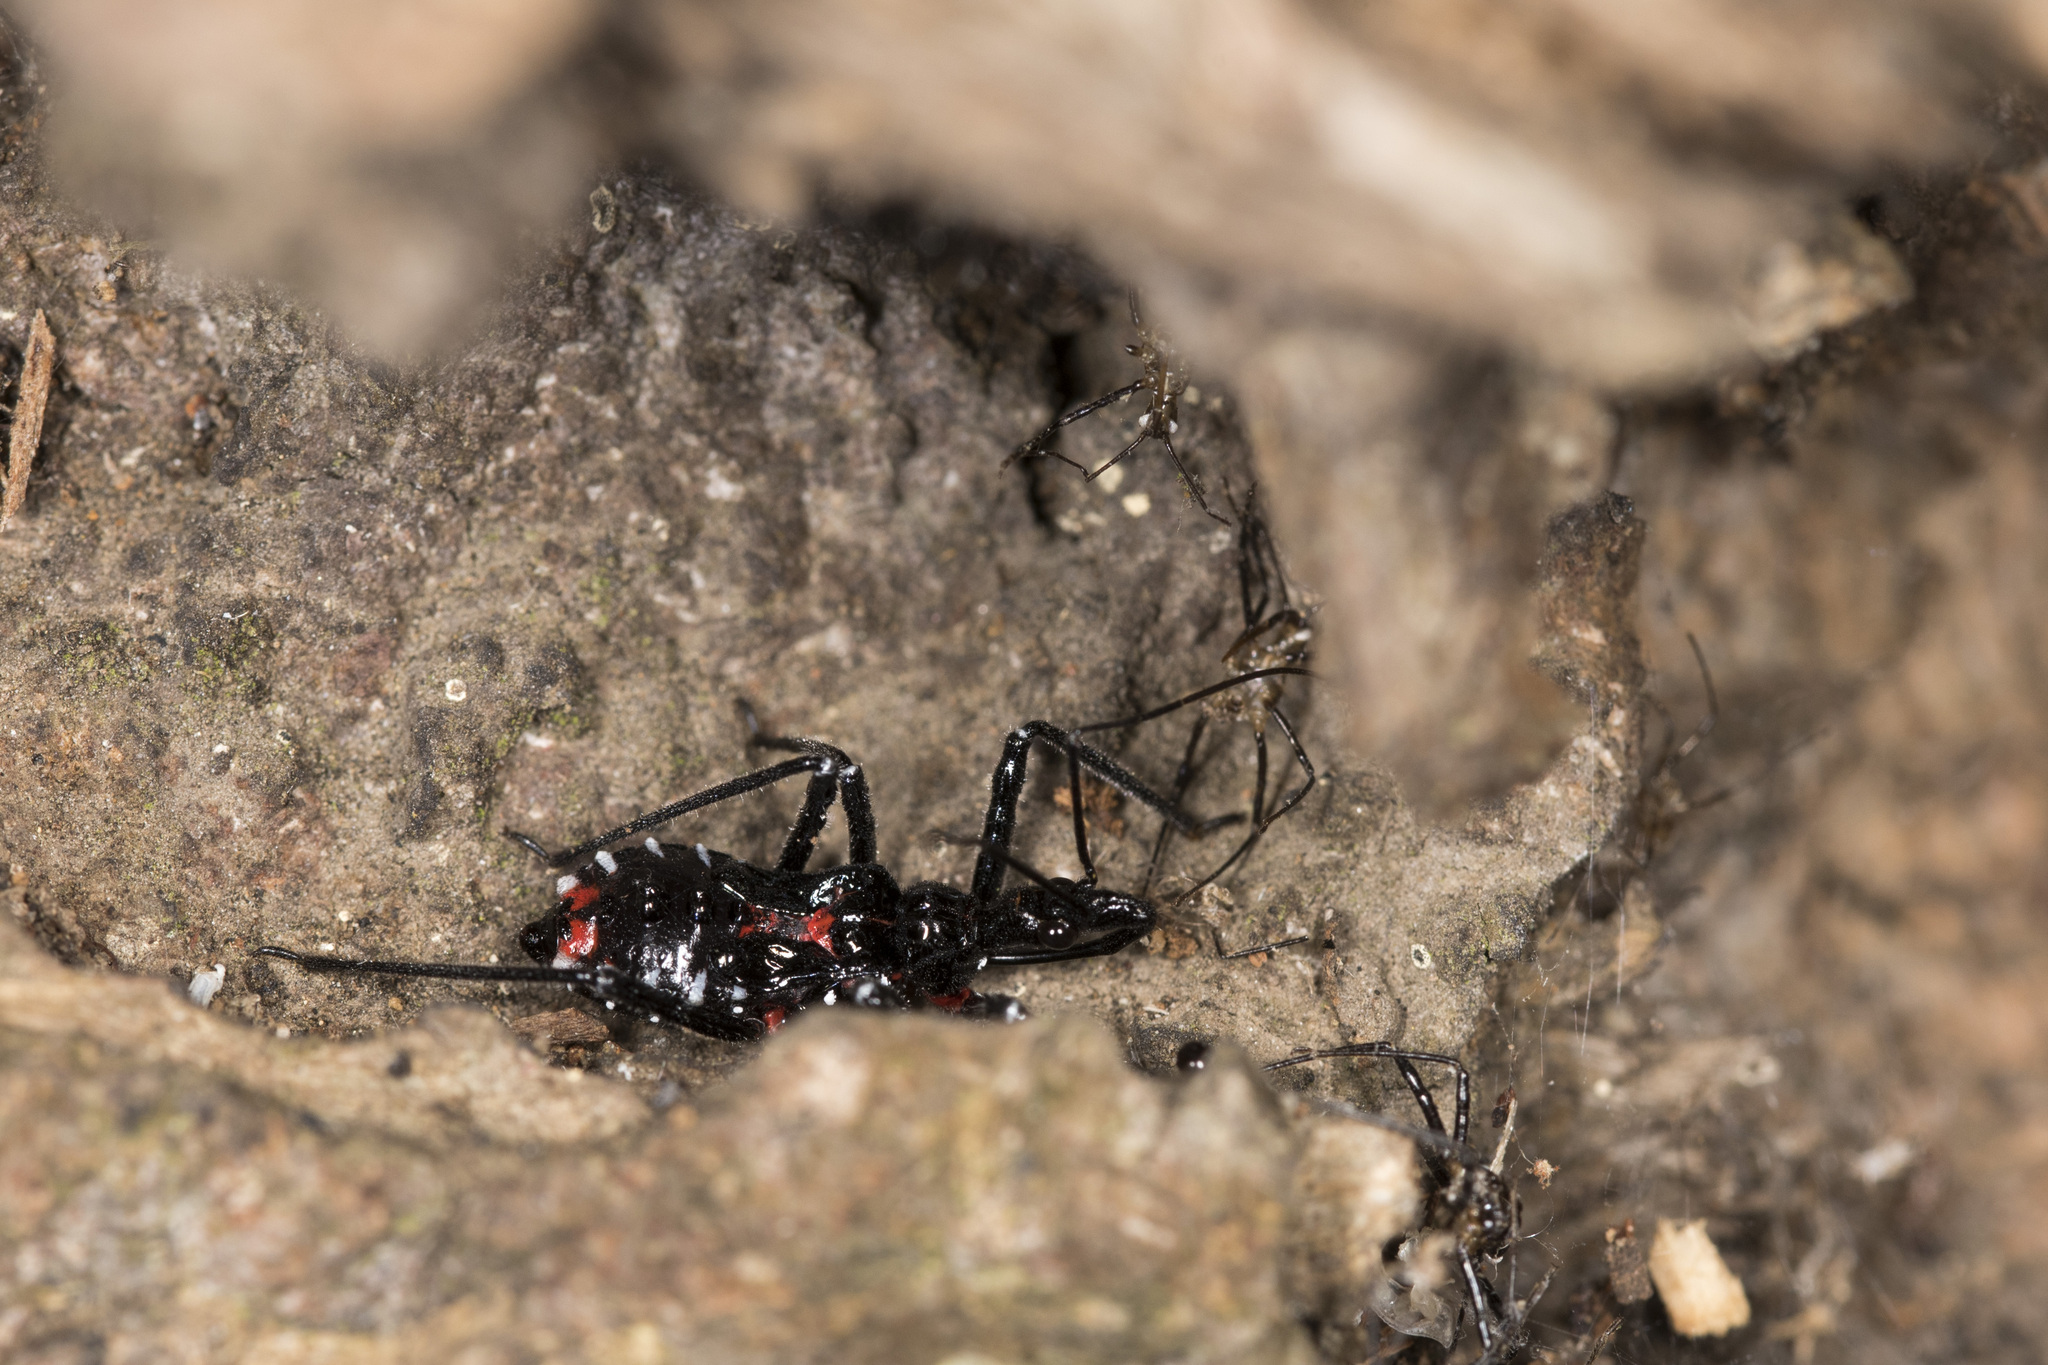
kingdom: Animalia
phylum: Arthropoda
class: Insecta
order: Hemiptera
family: Reduviidae
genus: Agriosphodrus
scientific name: Agriosphodrus dohrni
